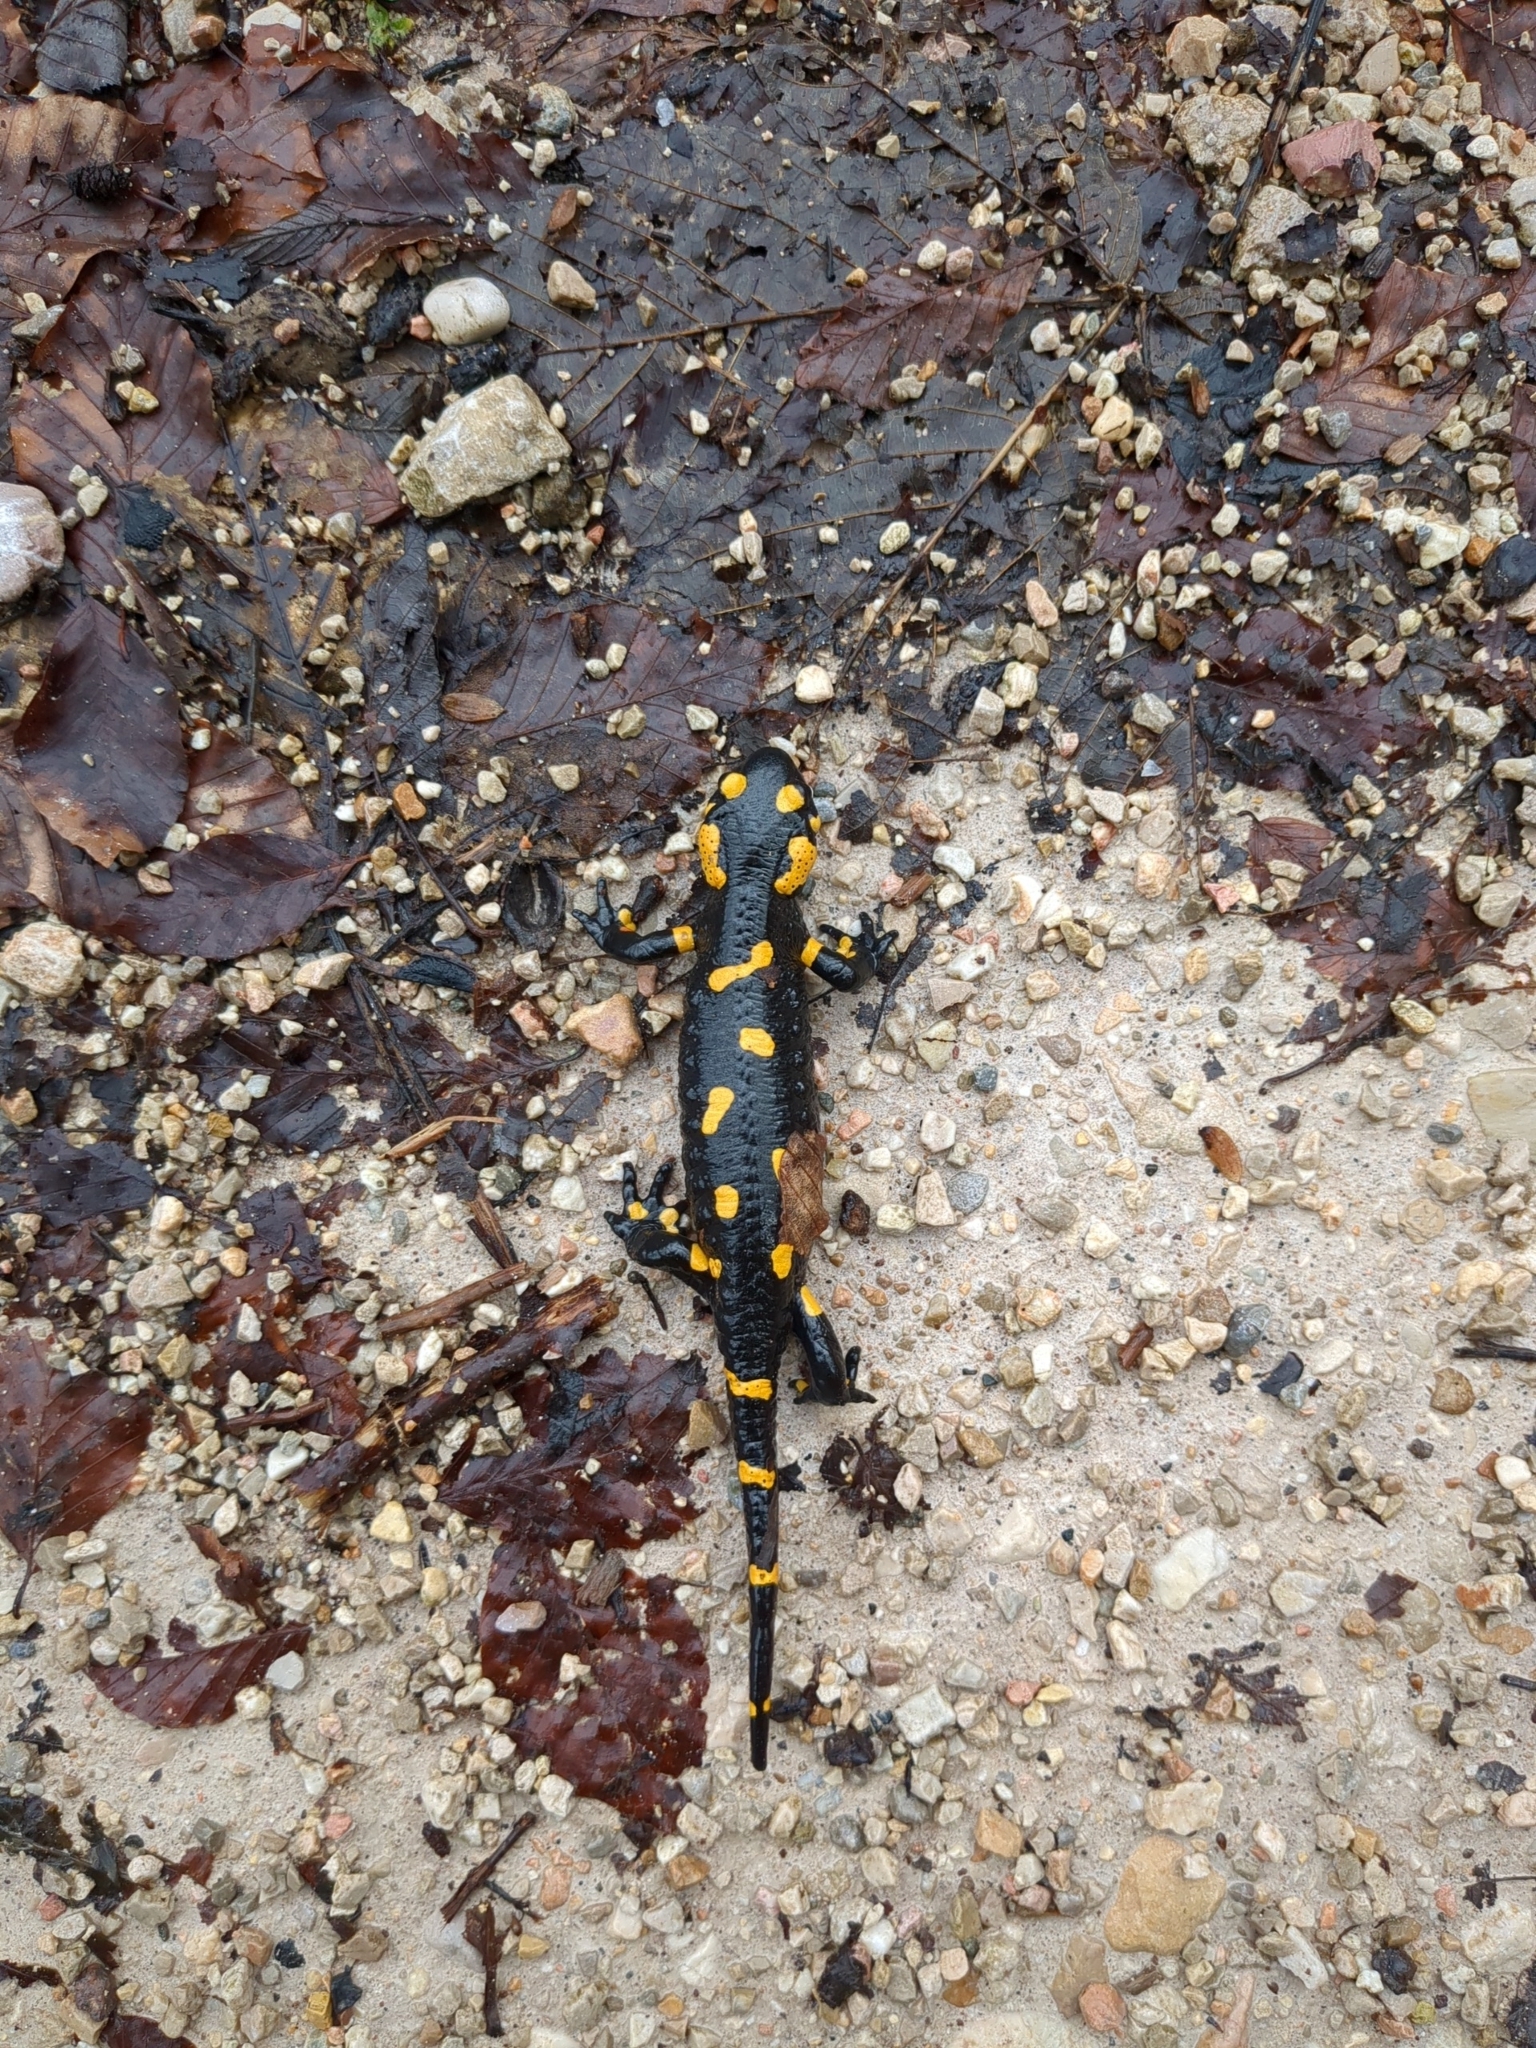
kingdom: Animalia
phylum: Chordata
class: Amphibia
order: Caudata
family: Salamandridae
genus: Salamandra
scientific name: Salamandra salamandra
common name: Fire salamander
